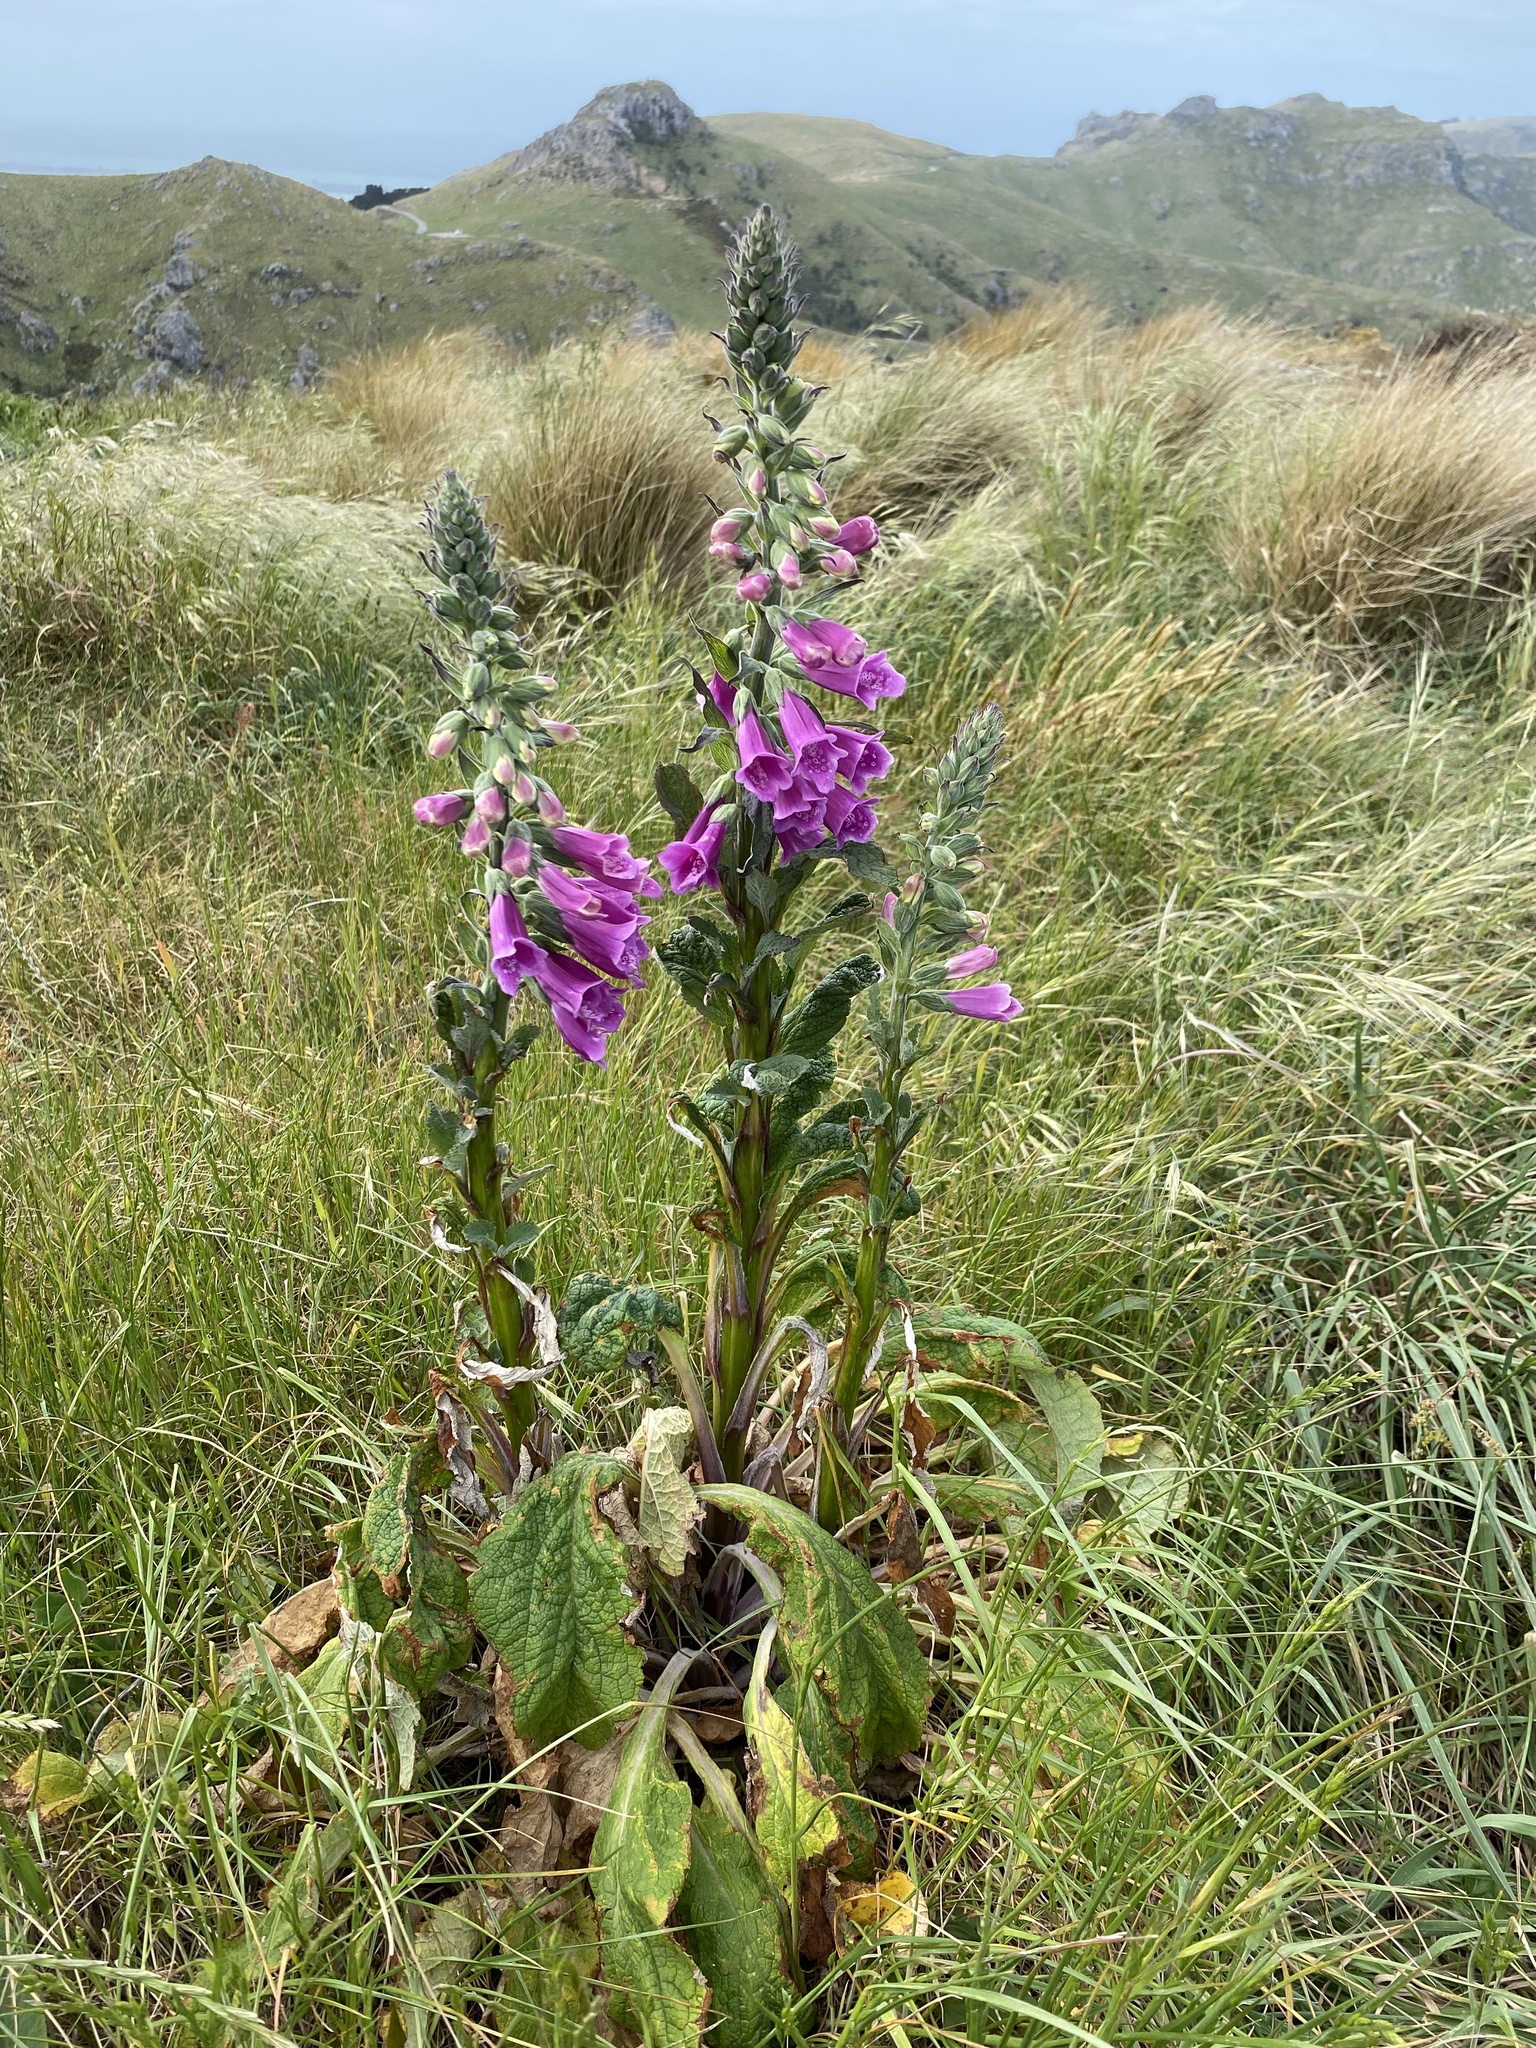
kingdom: Plantae
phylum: Tracheophyta
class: Magnoliopsida
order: Lamiales
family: Plantaginaceae
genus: Digitalis
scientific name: Digitalis purpurea
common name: Foxglove
